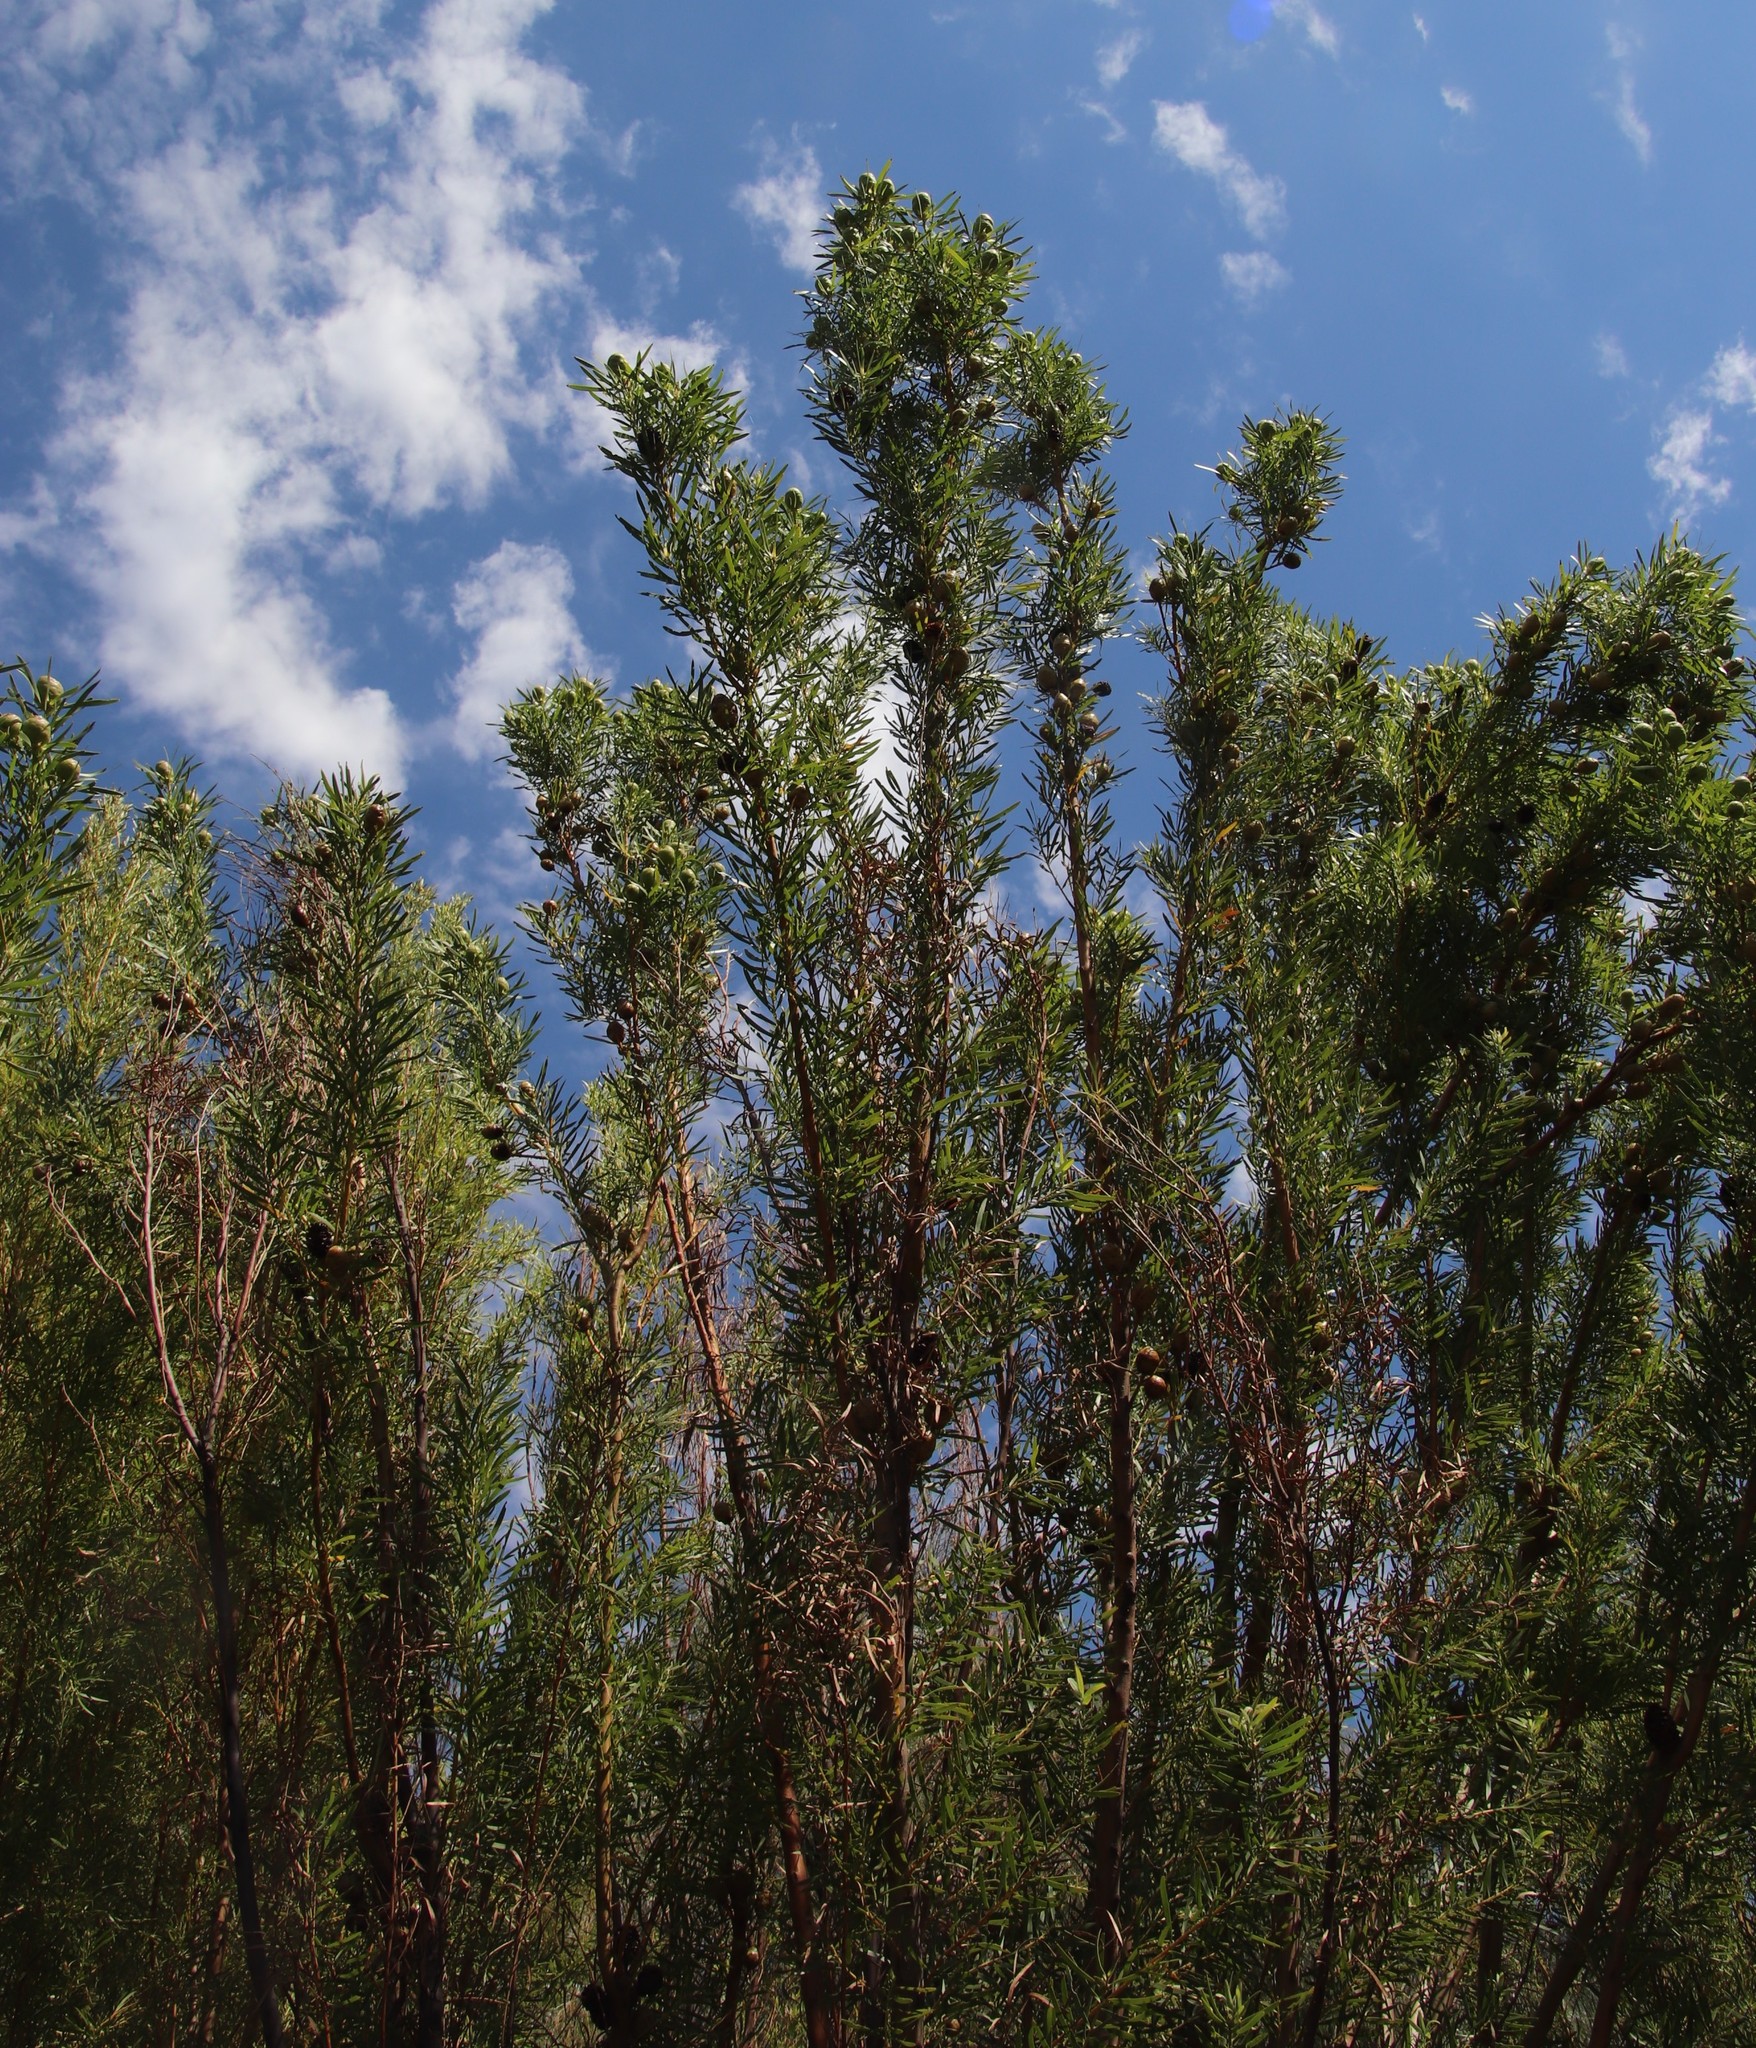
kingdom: Plantae
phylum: Tracheophyta
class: Magnoliopsida
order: Proteales
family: Proteaceae
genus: Leucadendron
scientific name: Leucadendron salicifolium
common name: Common stream conebush
